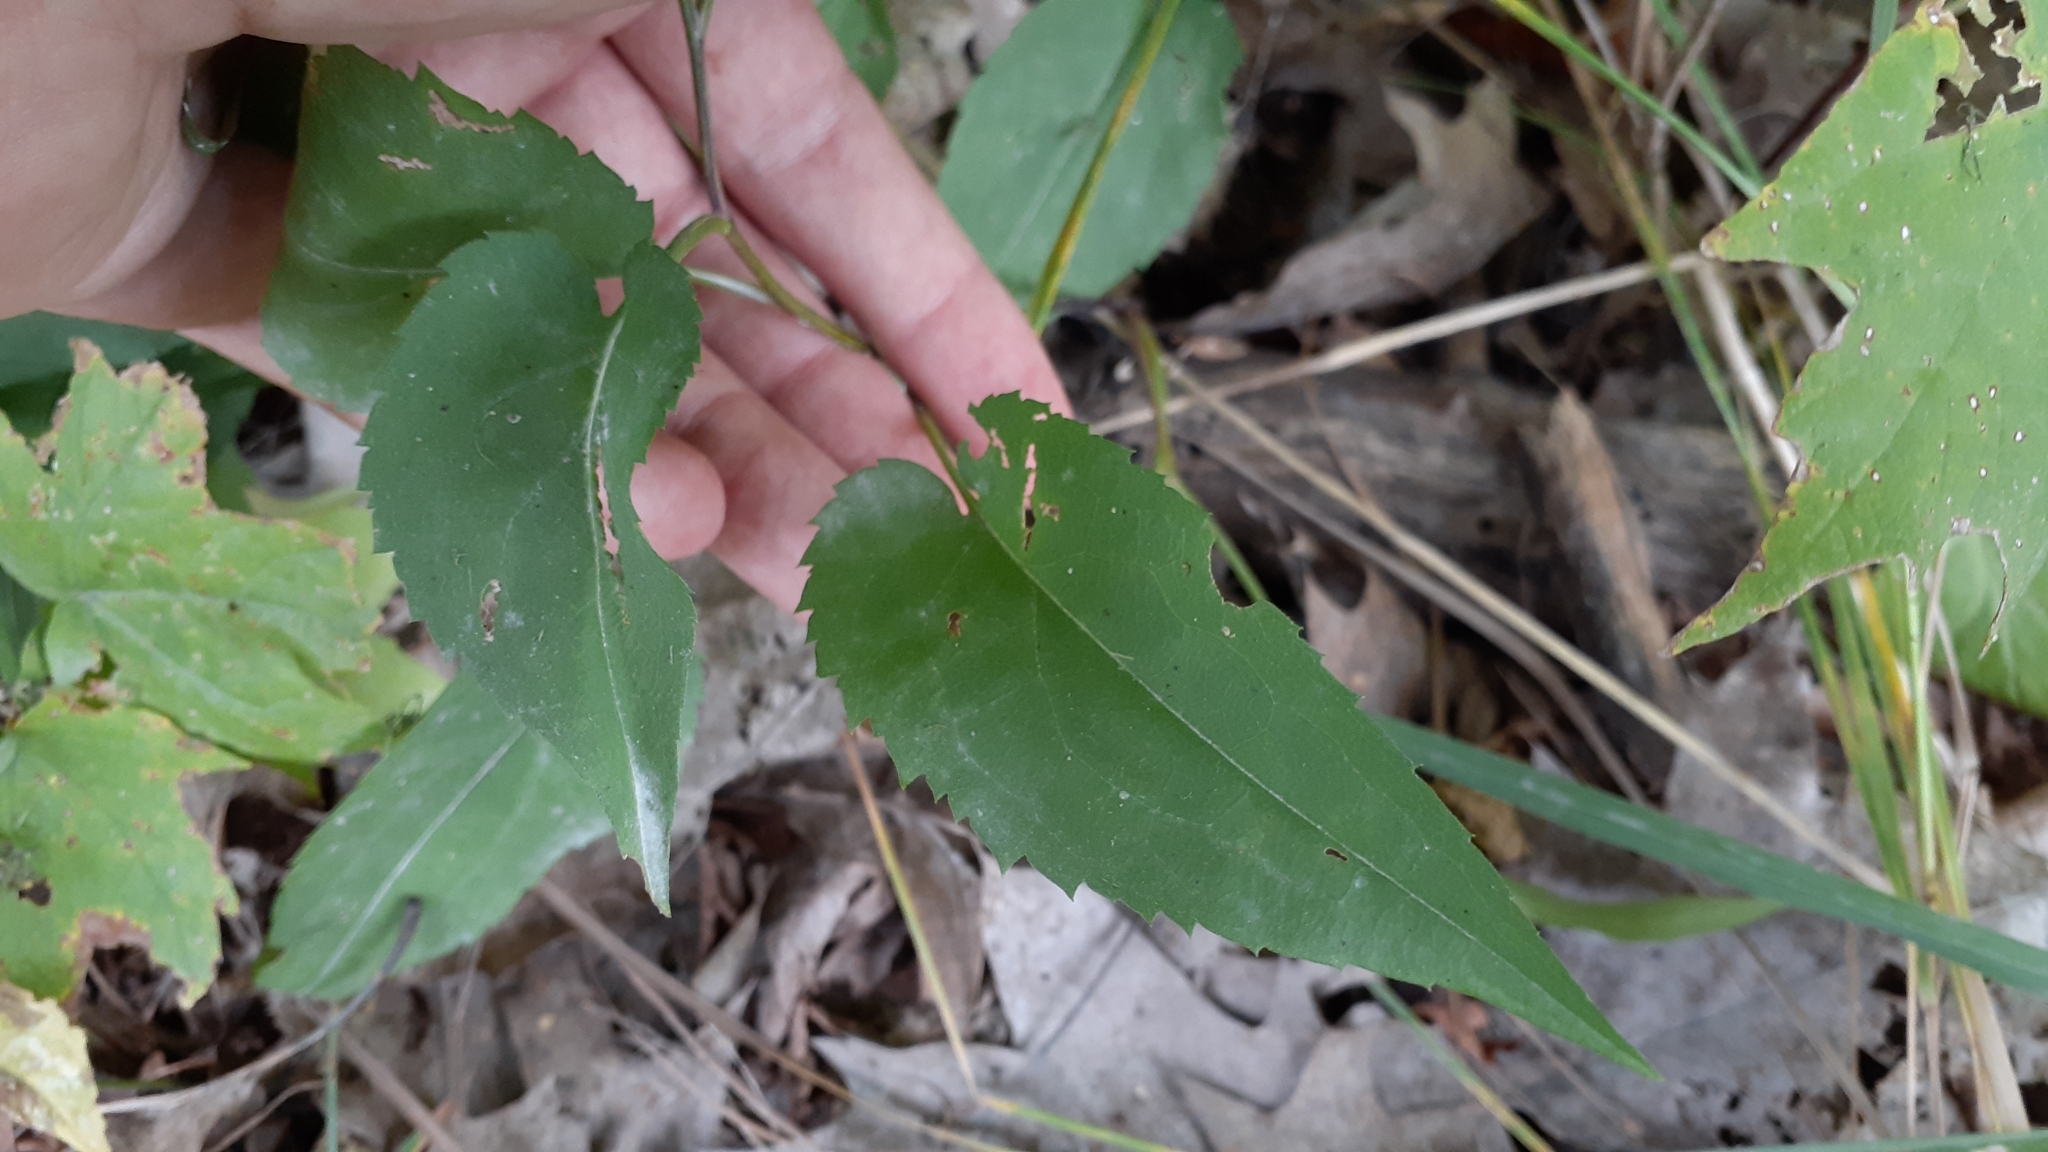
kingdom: Plantae
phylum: Tracheophyta
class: Magnoliopsida
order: Asterales
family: Asteraceae
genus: Symphyotrichum
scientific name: Symphyotrichum cordifolium
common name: Beeweed
